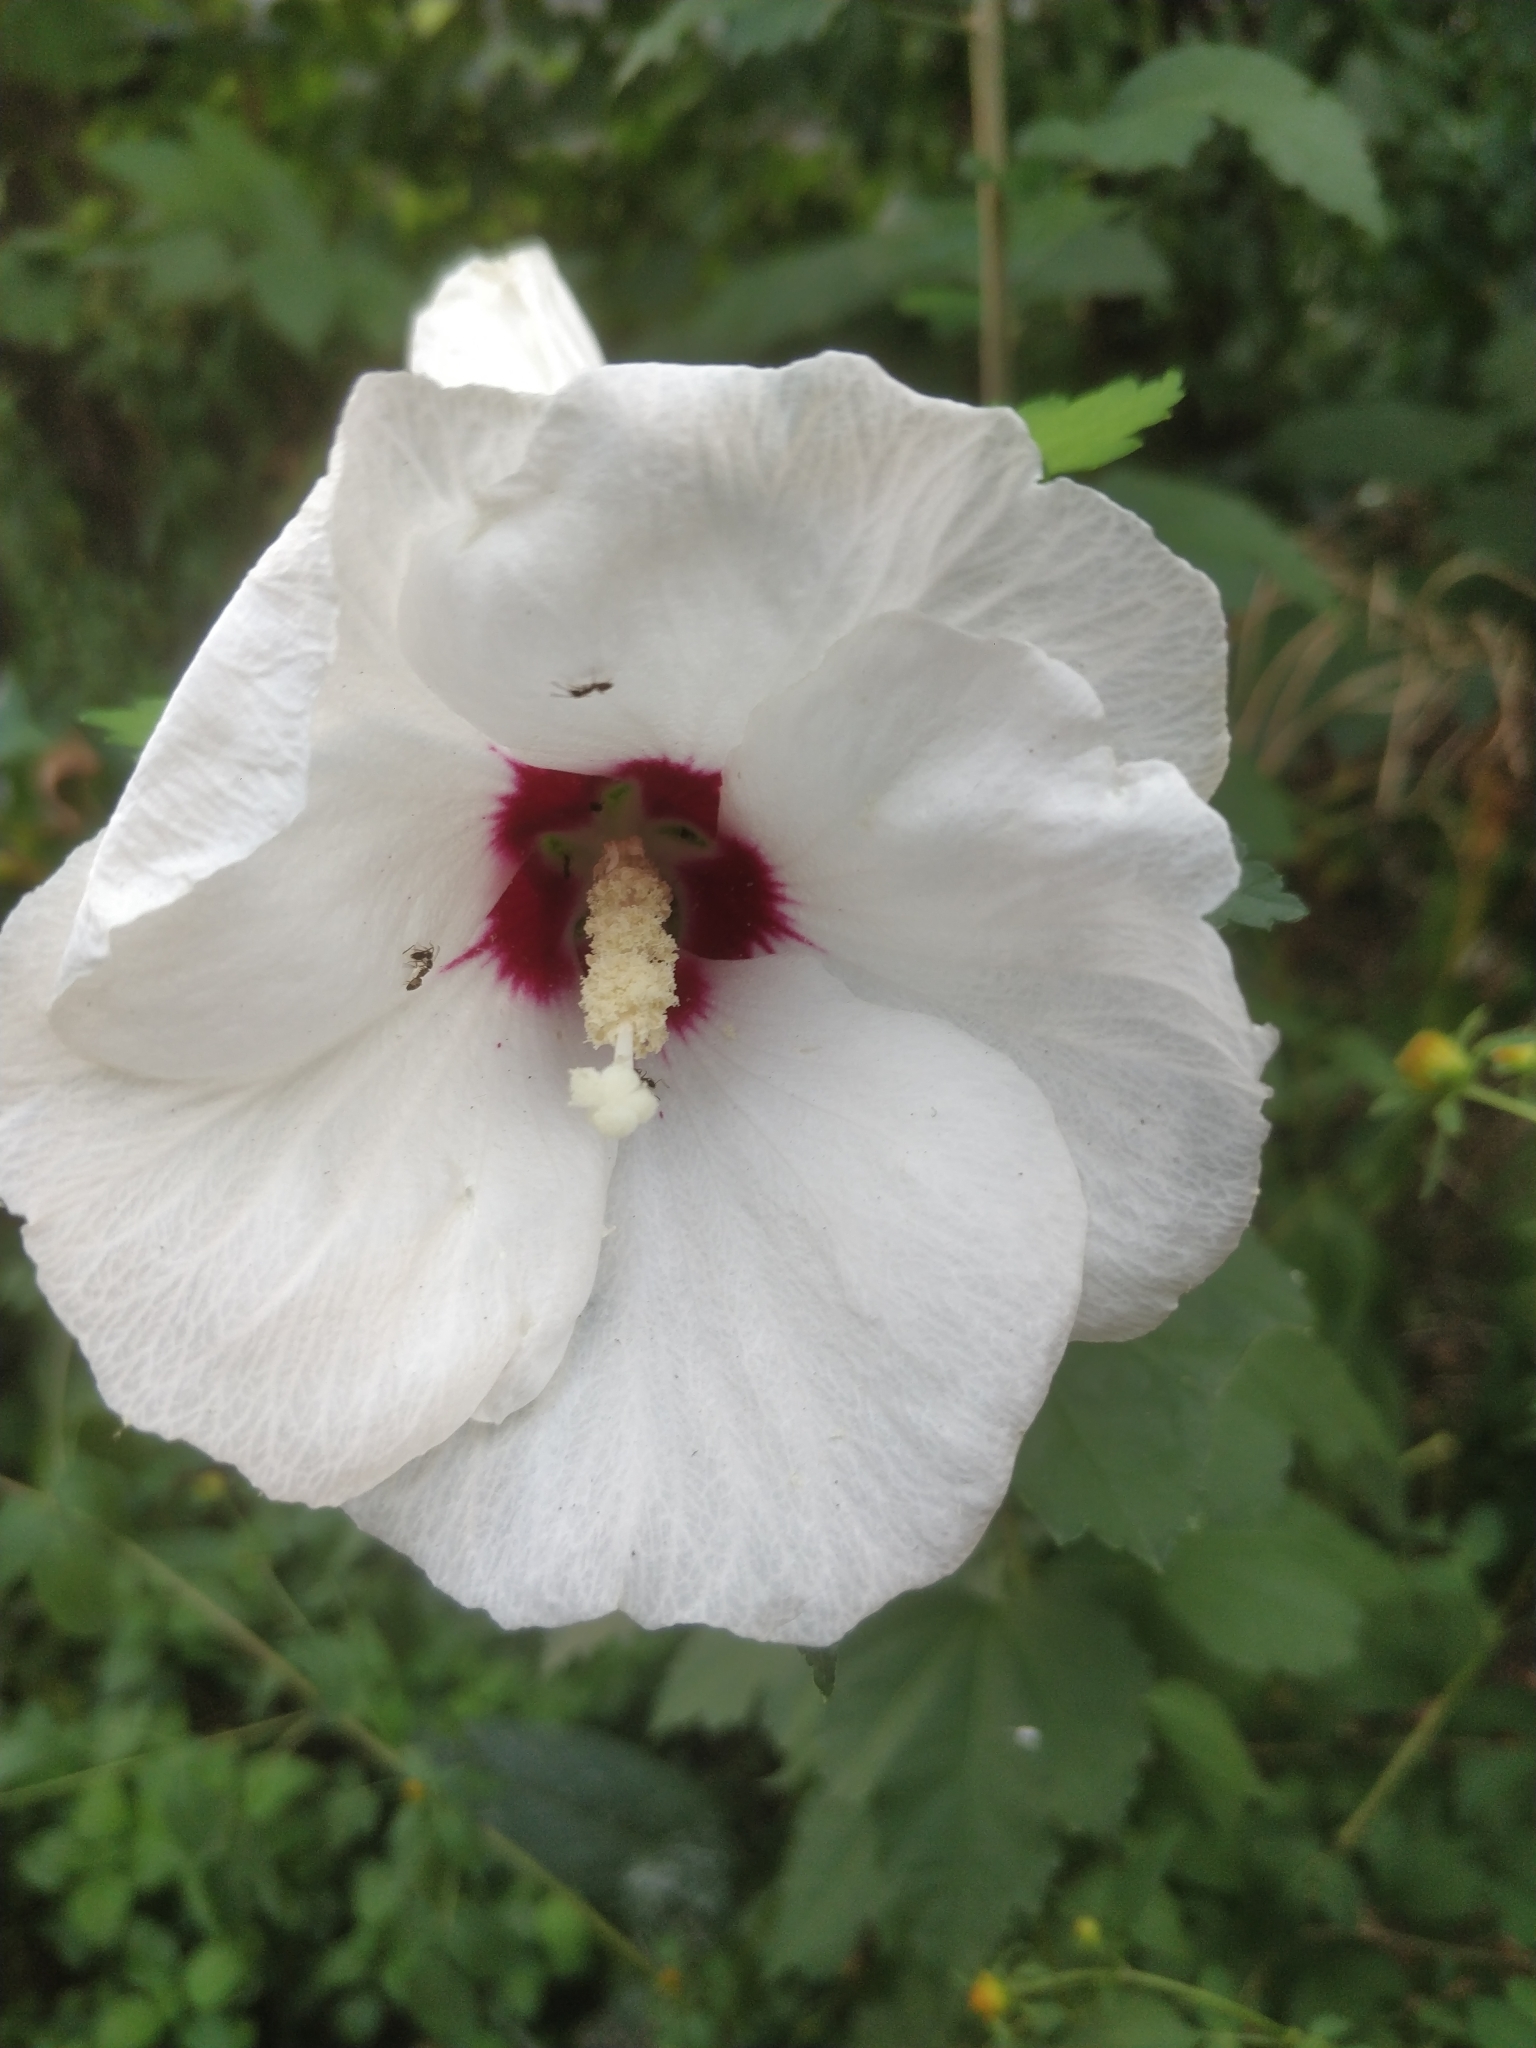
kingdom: Animalia
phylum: Arthropoda
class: Insecta
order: Hymenoptera
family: Formicidae
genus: Tapinoma
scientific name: Tapinoma sessile
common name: Odorous house ant
